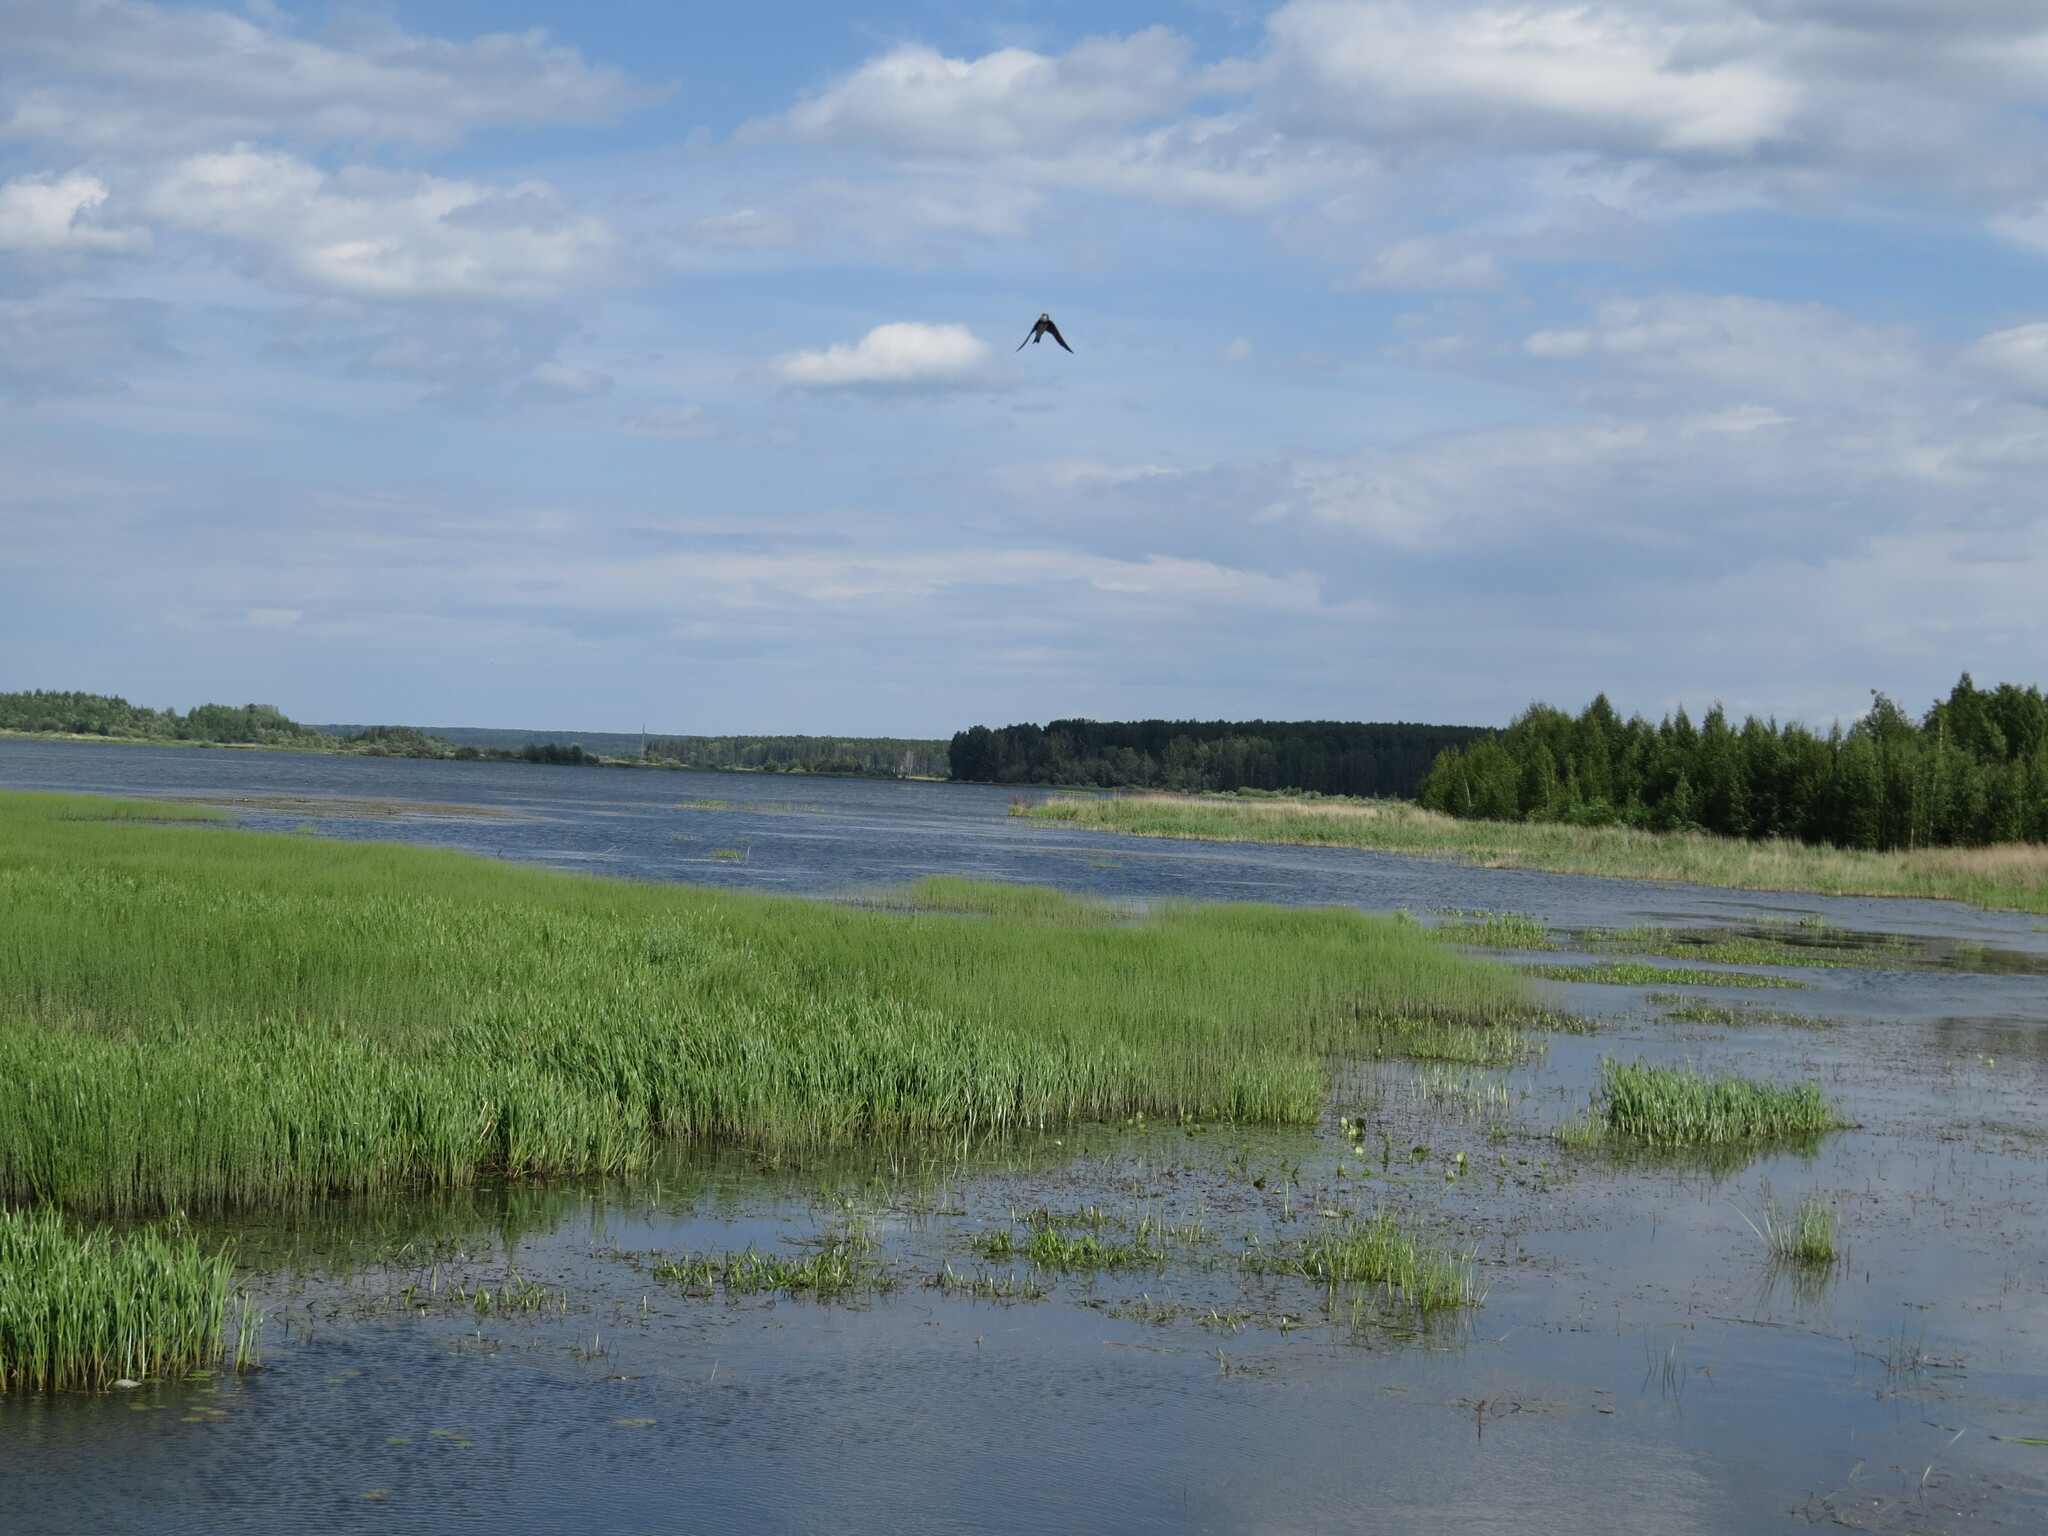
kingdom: Animalia
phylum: Chordata
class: Aves
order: Passeriformes
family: Hirundinidae
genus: Riparia
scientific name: Riparia riparia
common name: Sand martin
